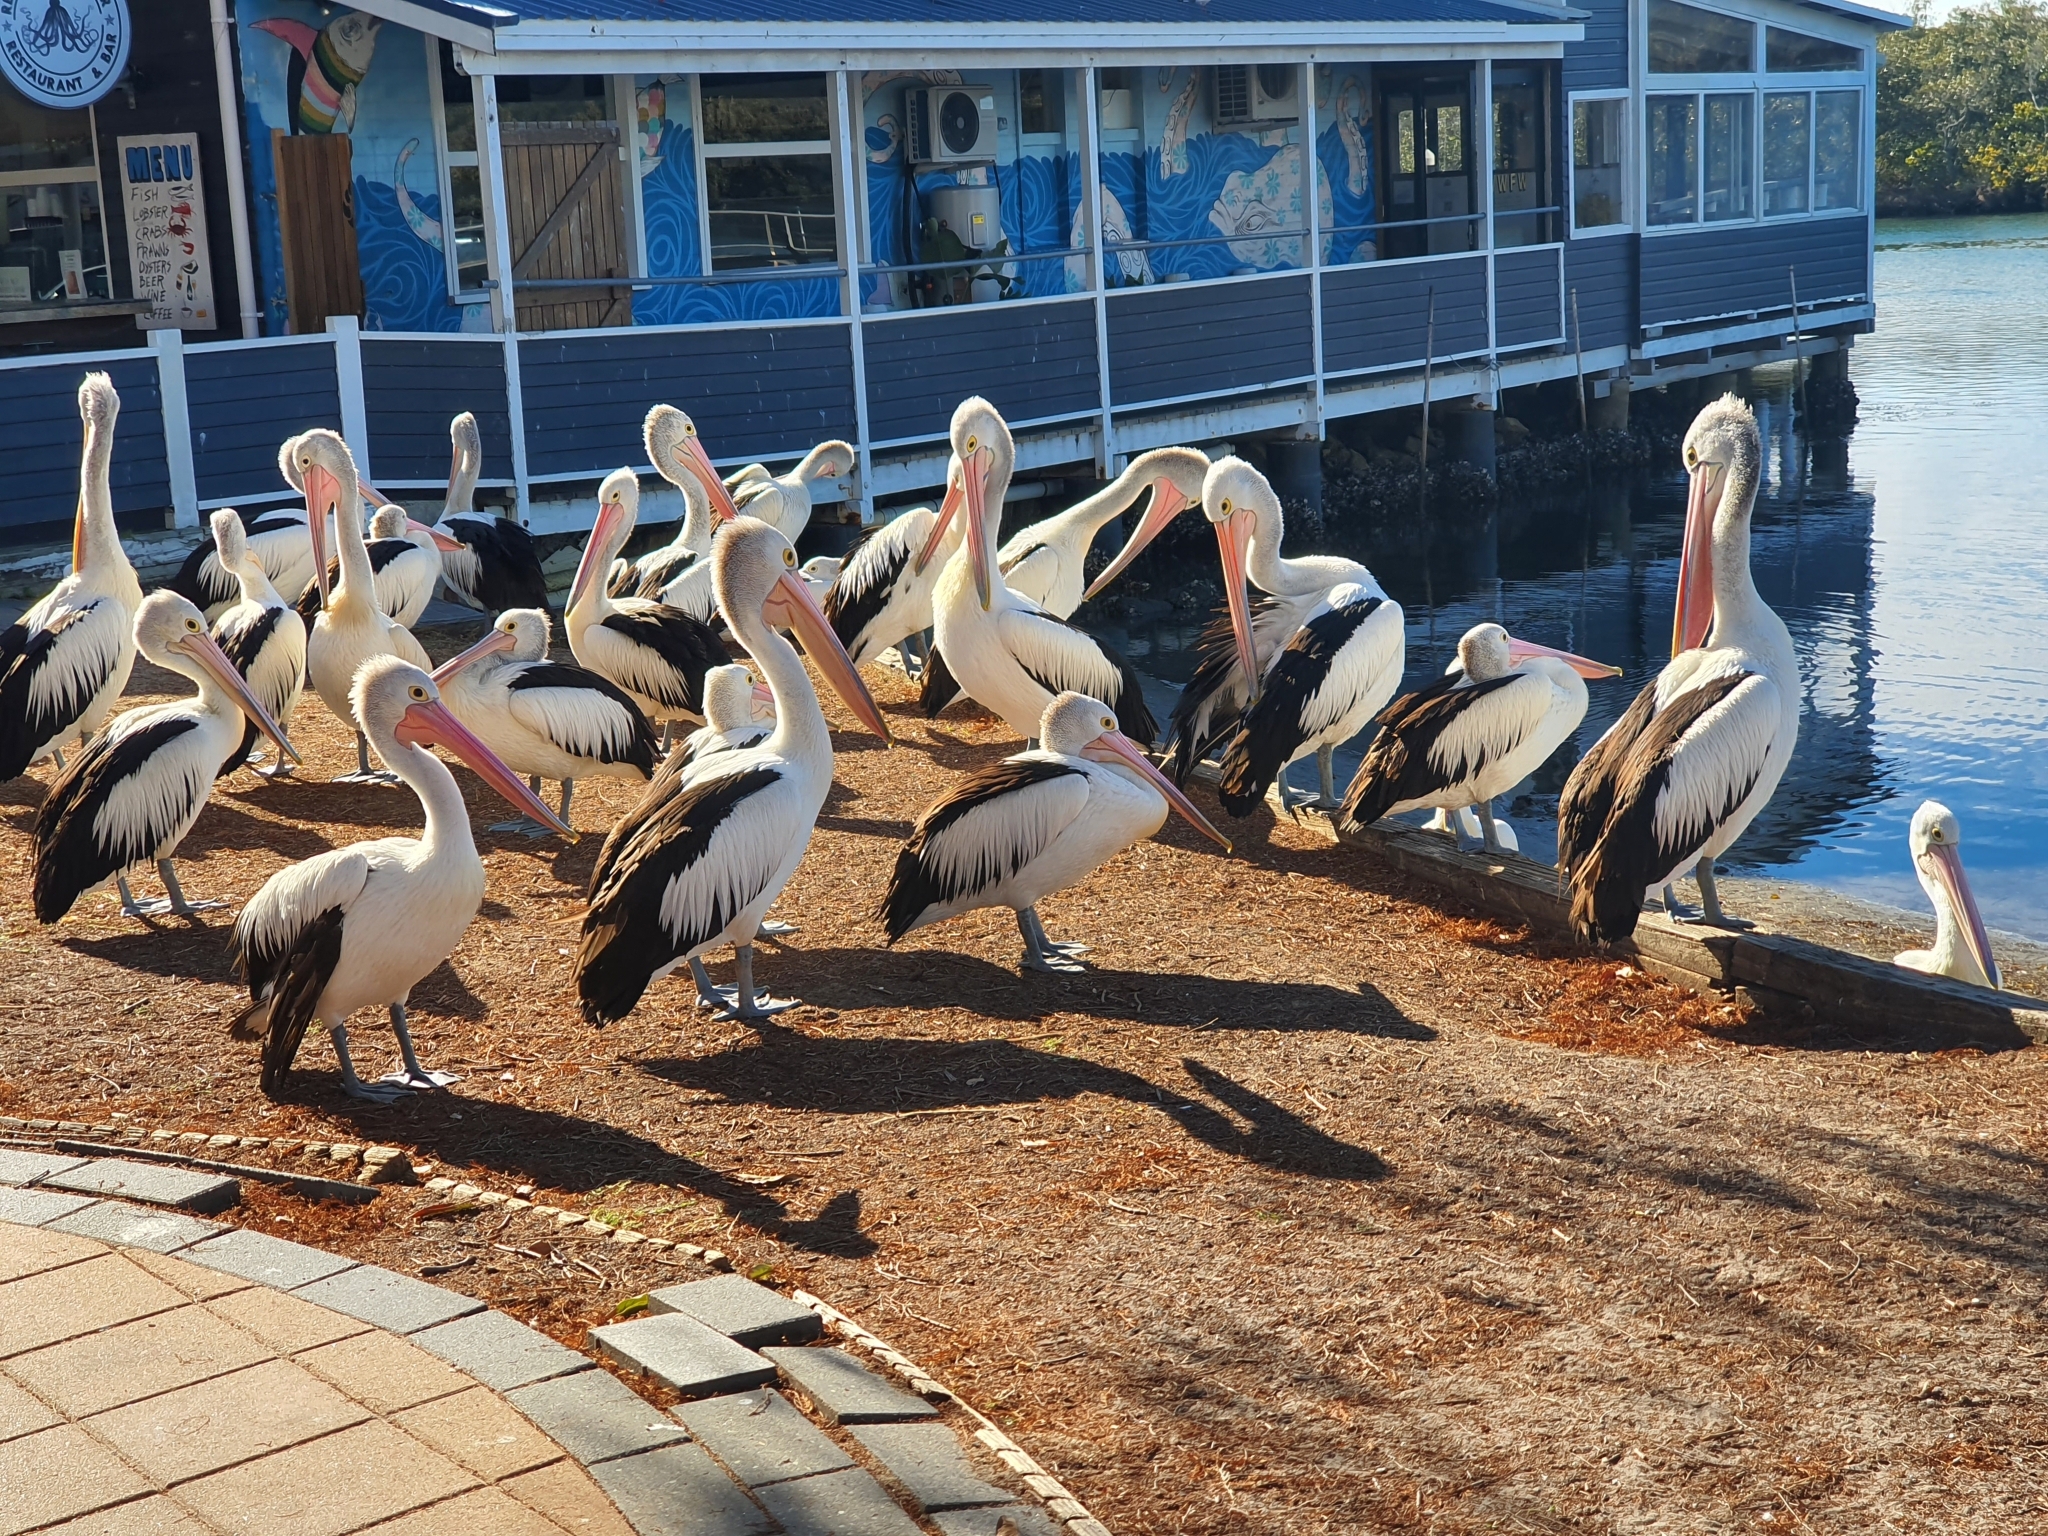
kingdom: Animalia
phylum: Chordata
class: Aves
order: Pelecaniformes
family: Pelecanidae
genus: Pelecanus
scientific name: Pelecanus conspicillatus
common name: Australian pelican
